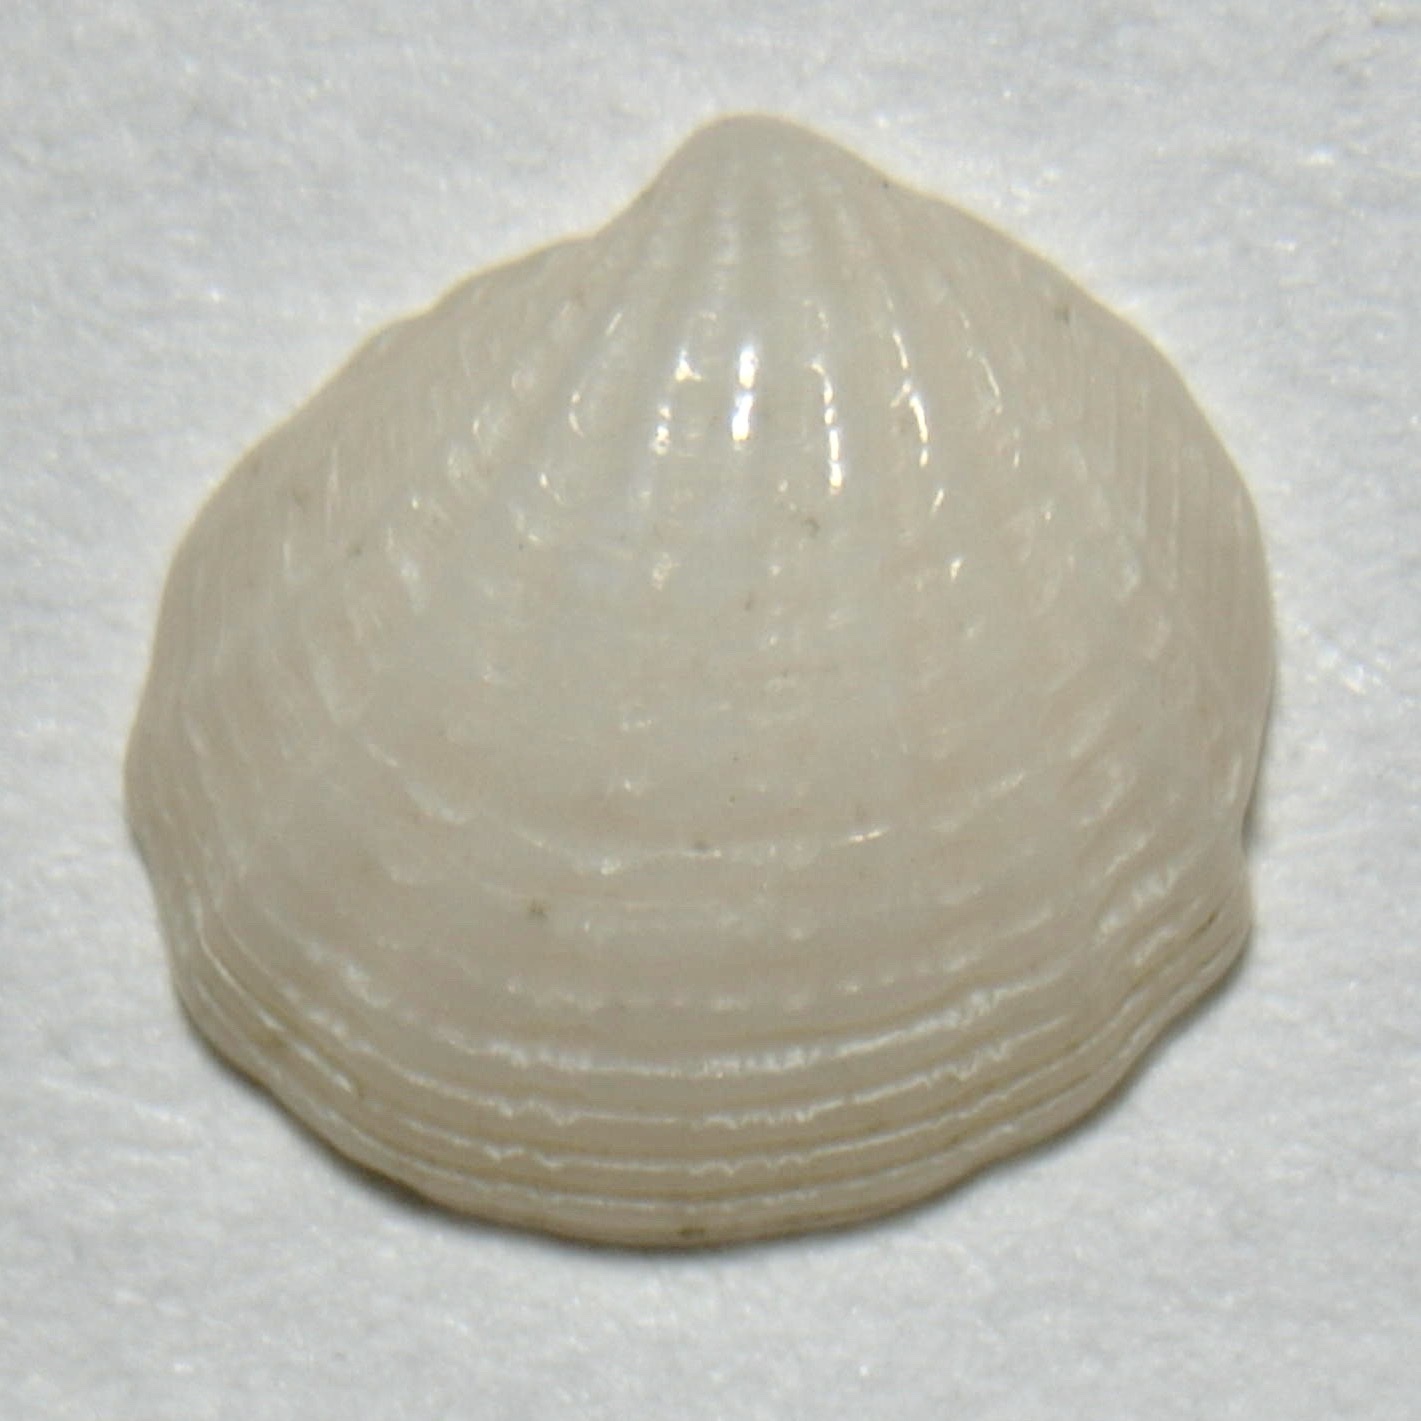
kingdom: Animalia
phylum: Mollusca
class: Bivalvia
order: Lucinida
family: Lucinidae
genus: Radiolucina
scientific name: Radiolucina amianta
